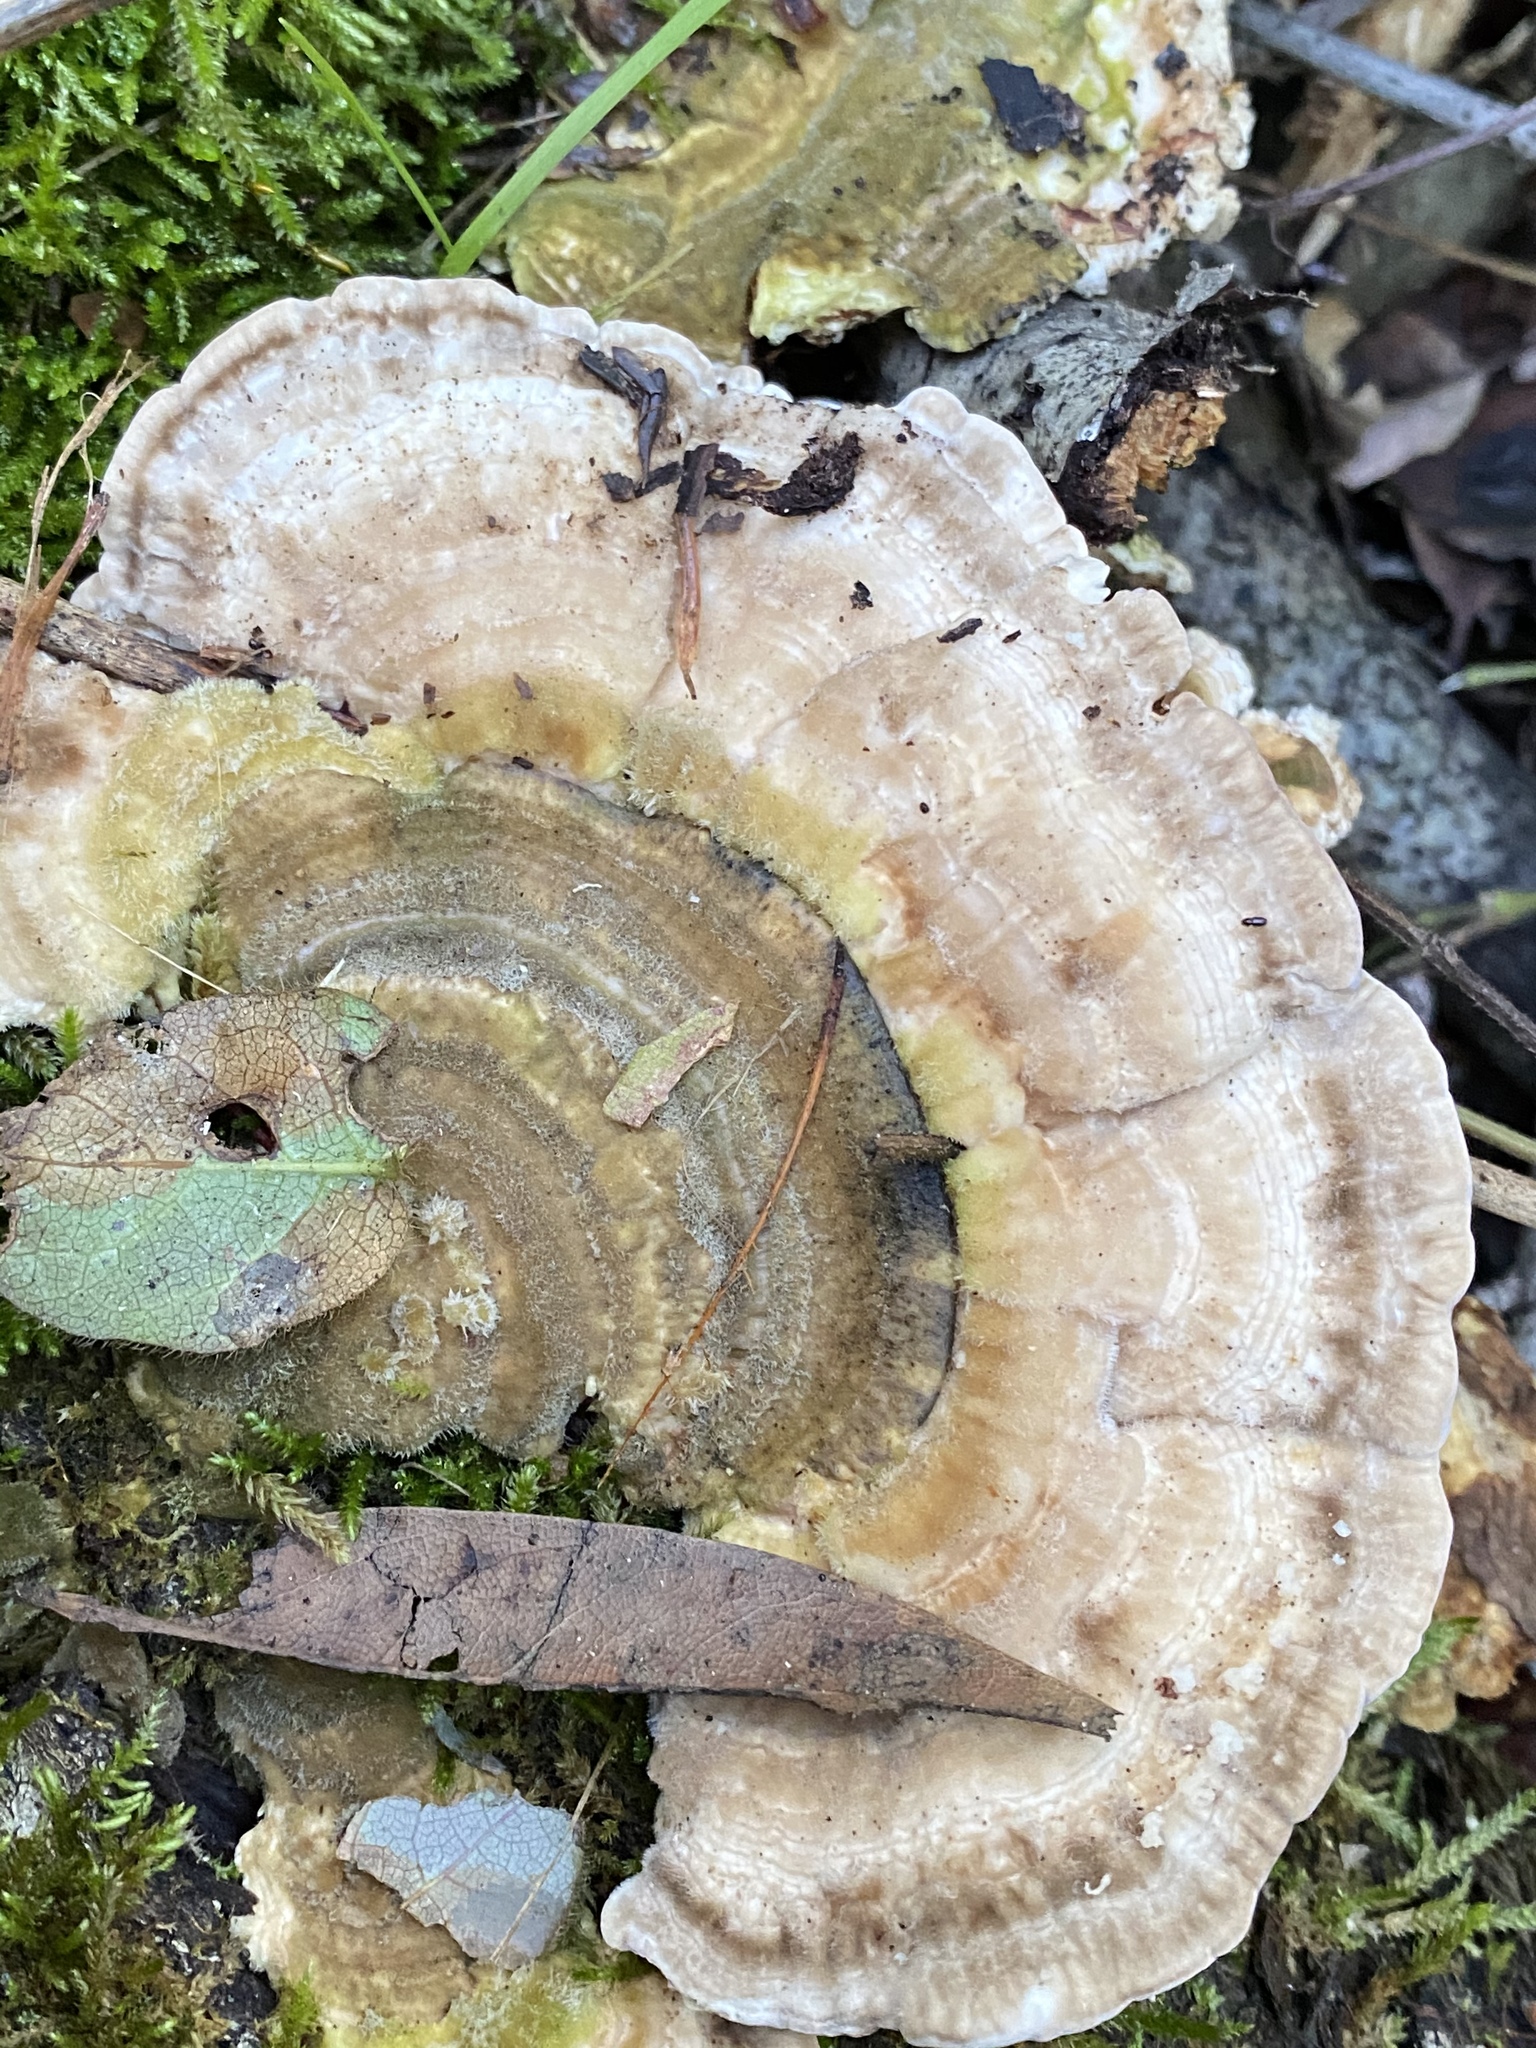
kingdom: Fungi
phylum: Basidiomycota
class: Agaricomycetes
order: Polyporales
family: Polyporaceae
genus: Lenzites
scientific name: Lenzites betulinus
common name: Birch mazegill
